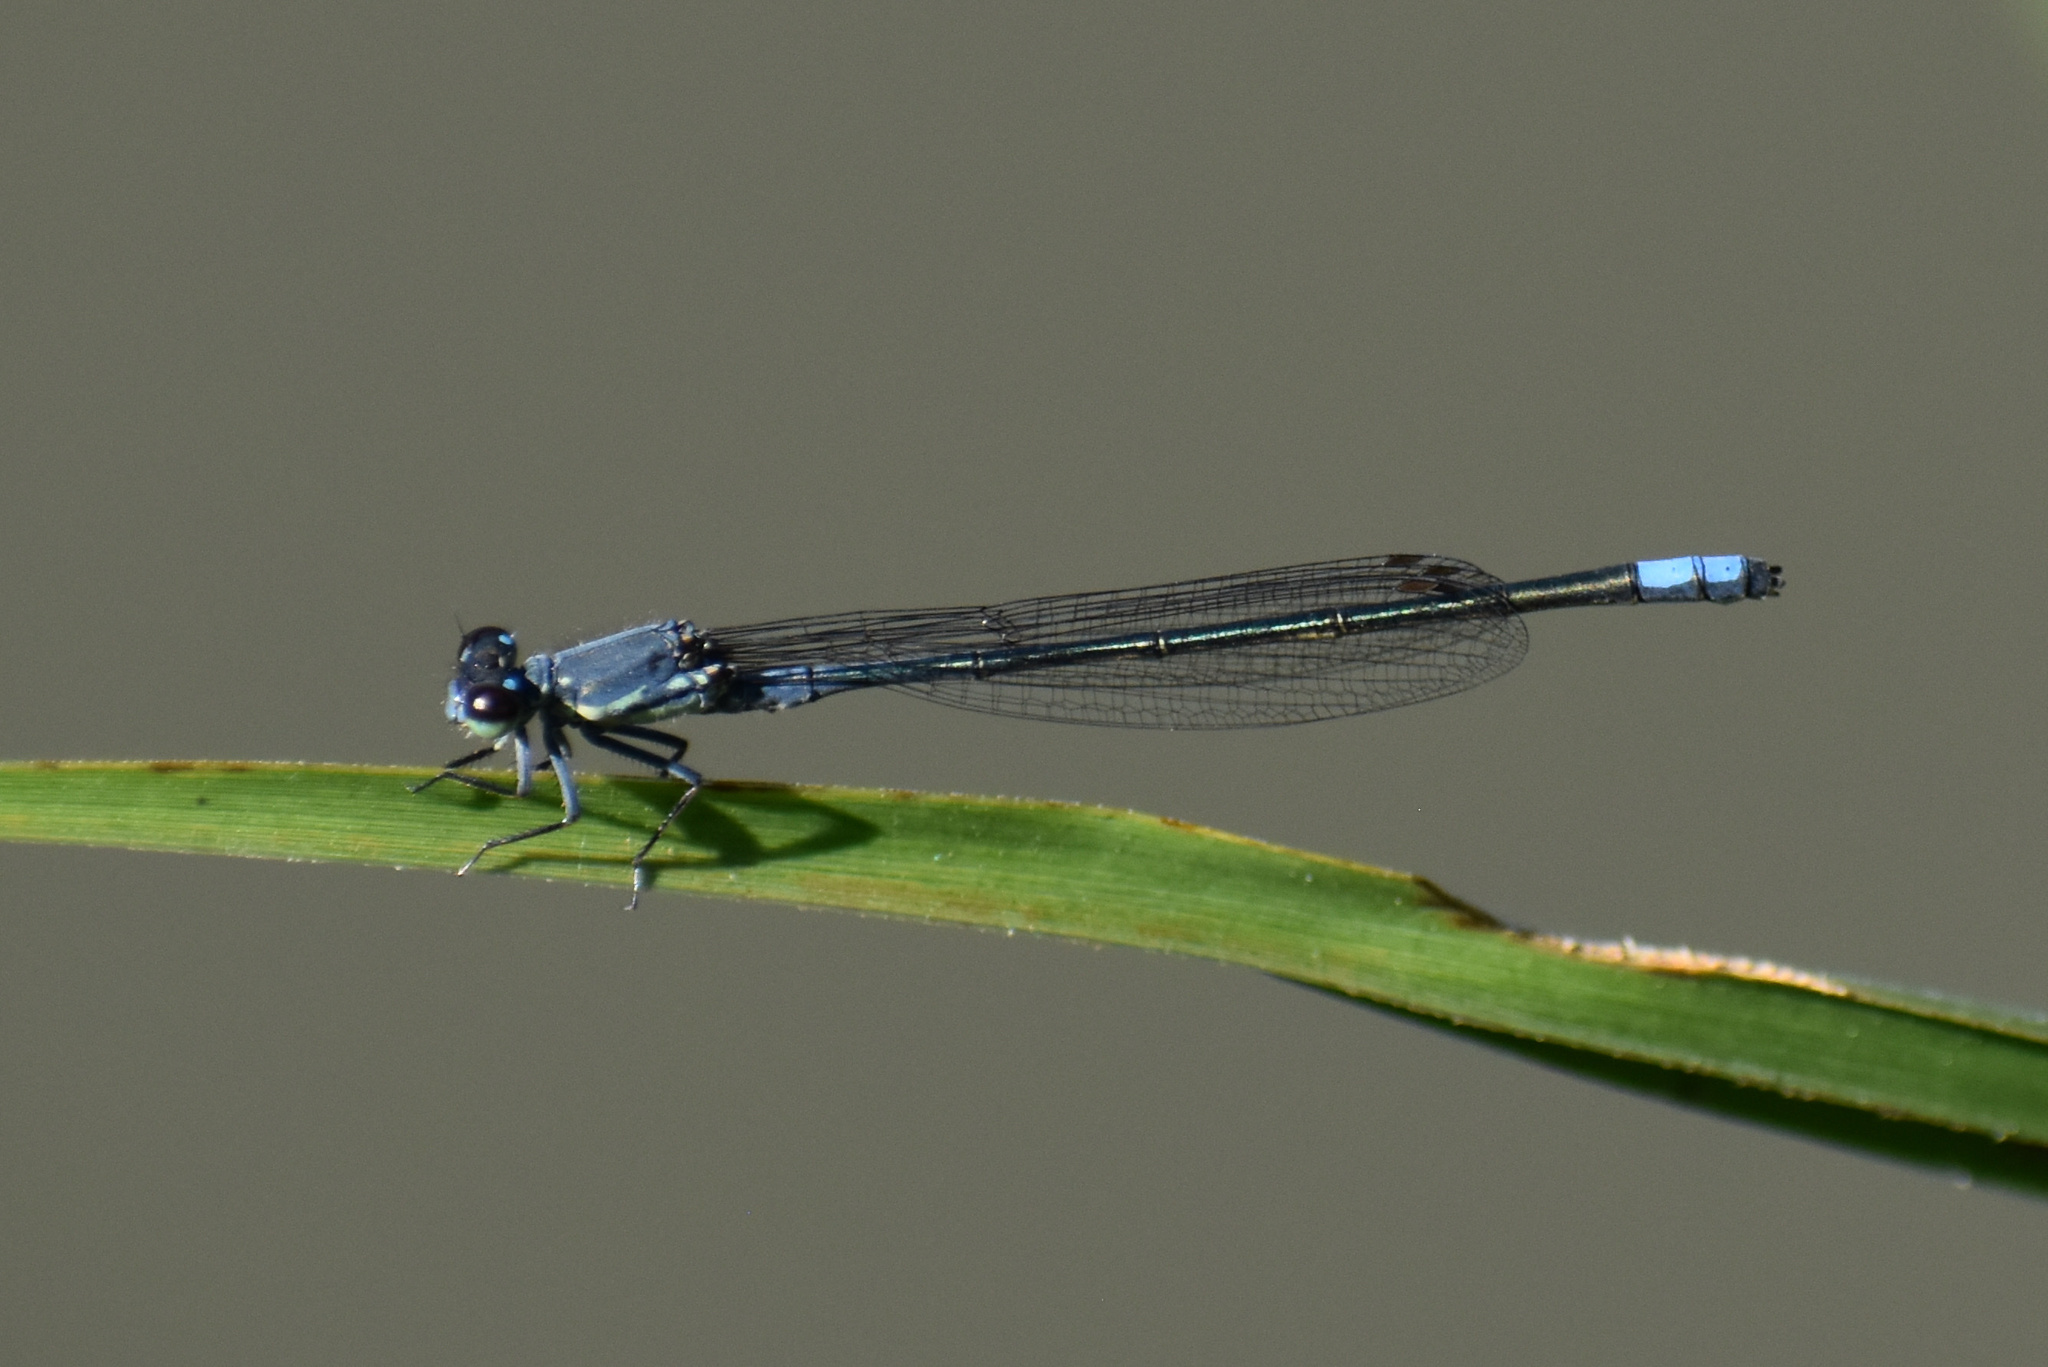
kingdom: Animalia
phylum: Arthropoda
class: Insecta
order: Odonata
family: Coenagrionidae
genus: Pseudagrion
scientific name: Pseudagrion draconis
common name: Mountain sprite
